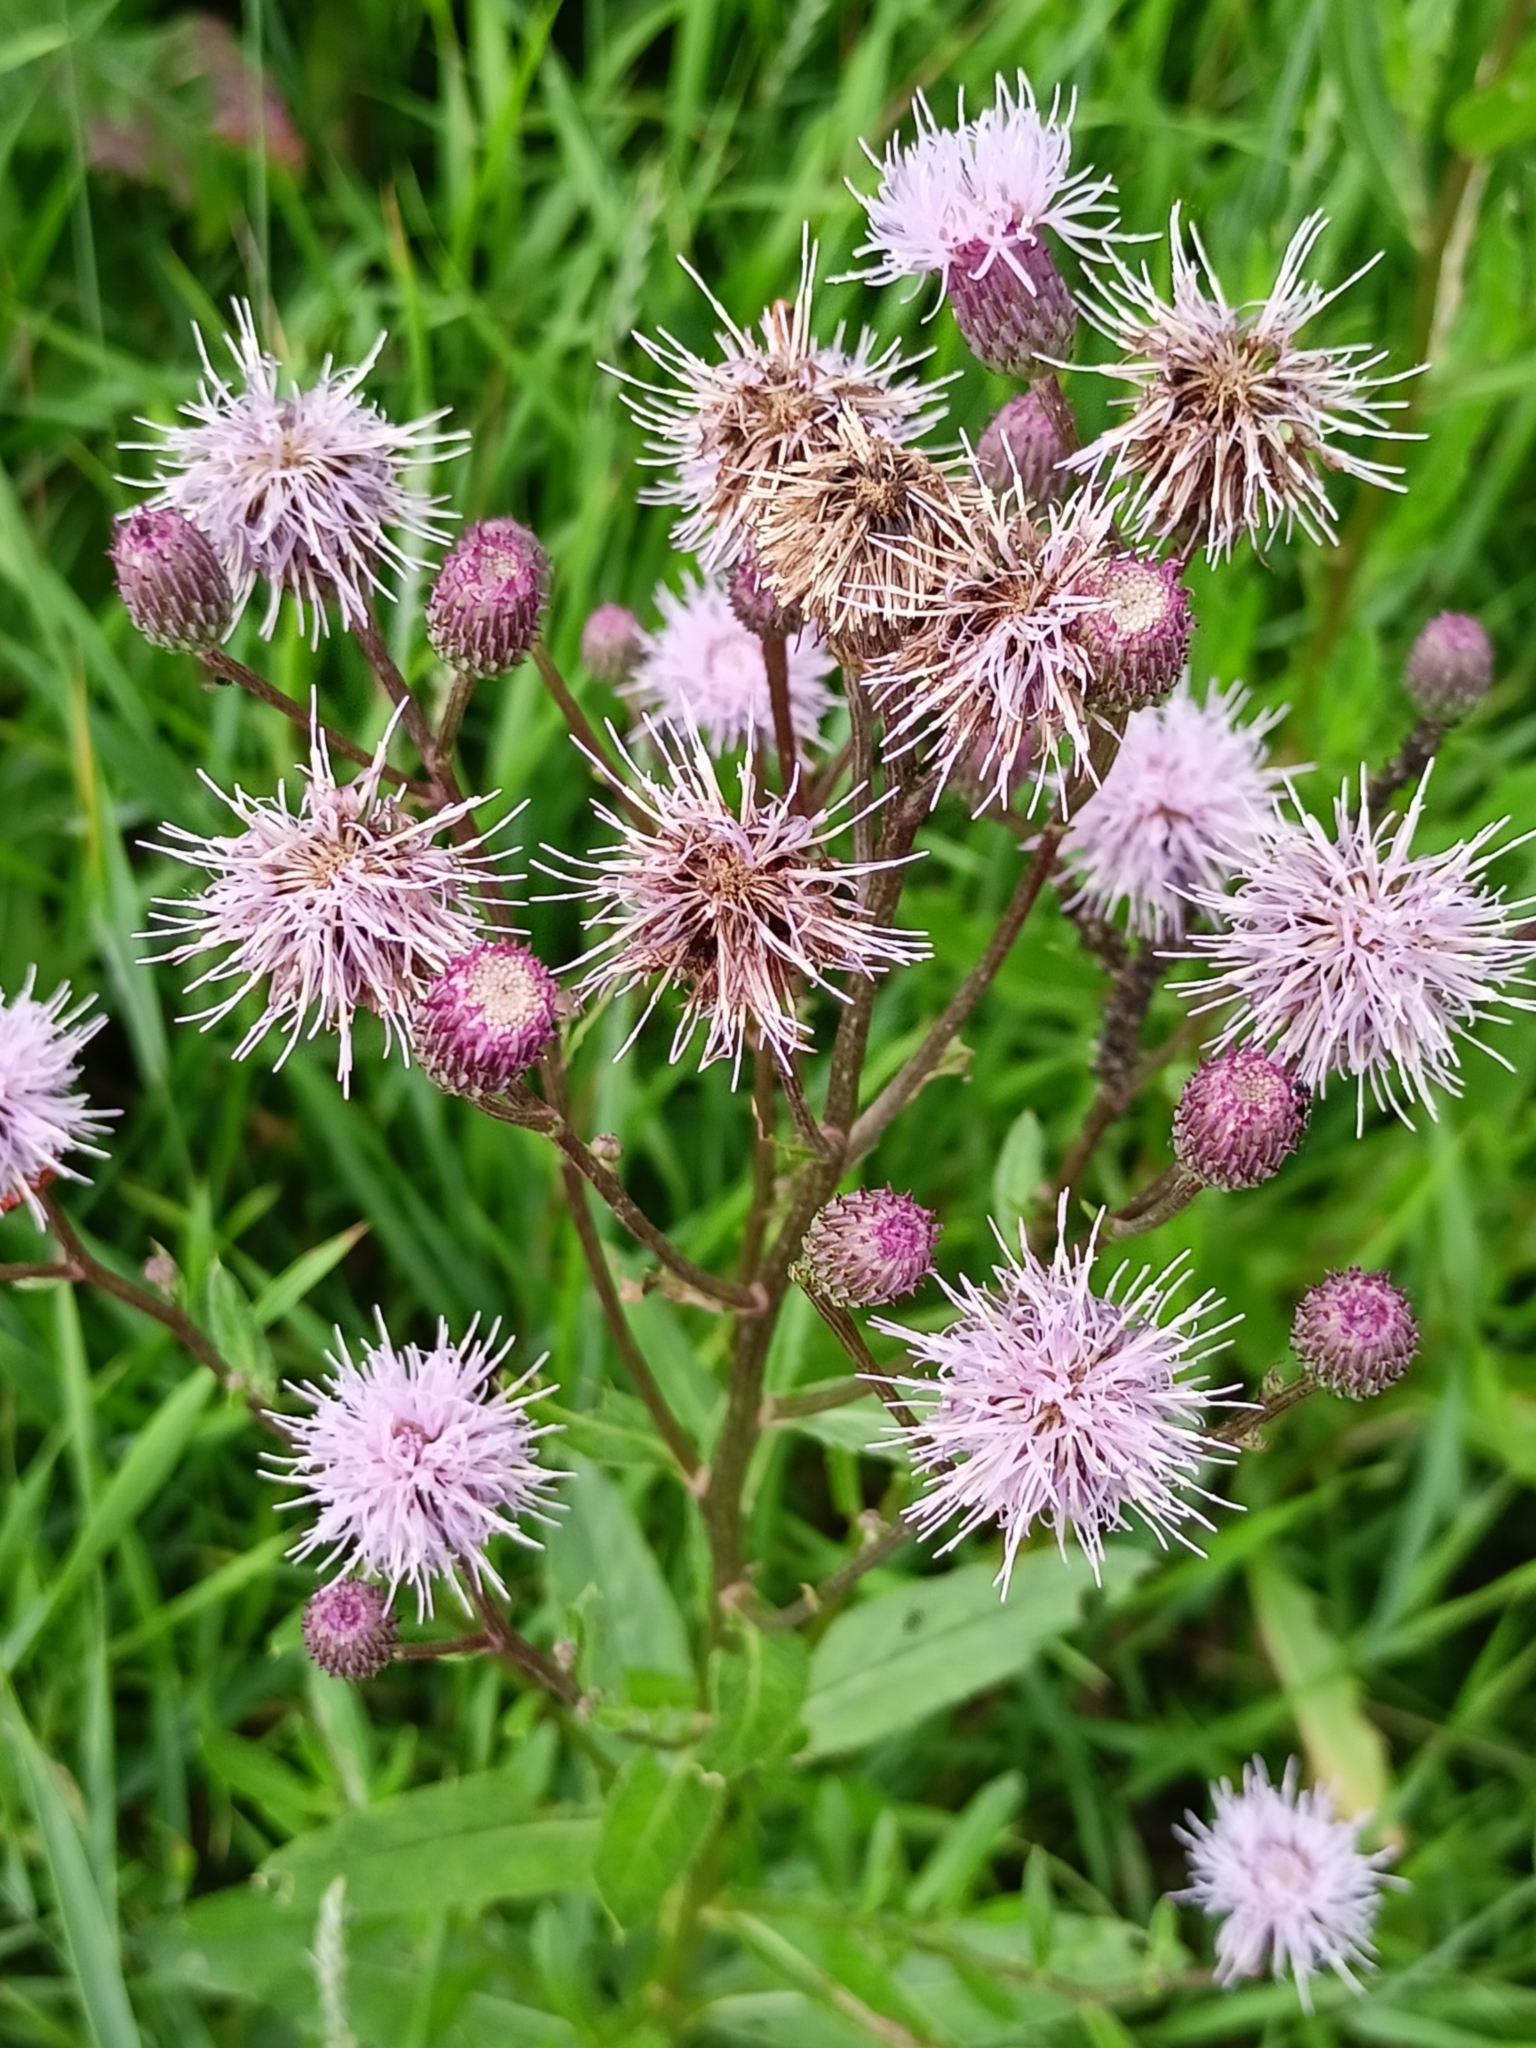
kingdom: Plantae
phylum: Tracheophyta
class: Magnoliopsida
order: Asterales
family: Asteraceae
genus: Cirsium
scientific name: Cirsium arvense
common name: Creeping thistle
